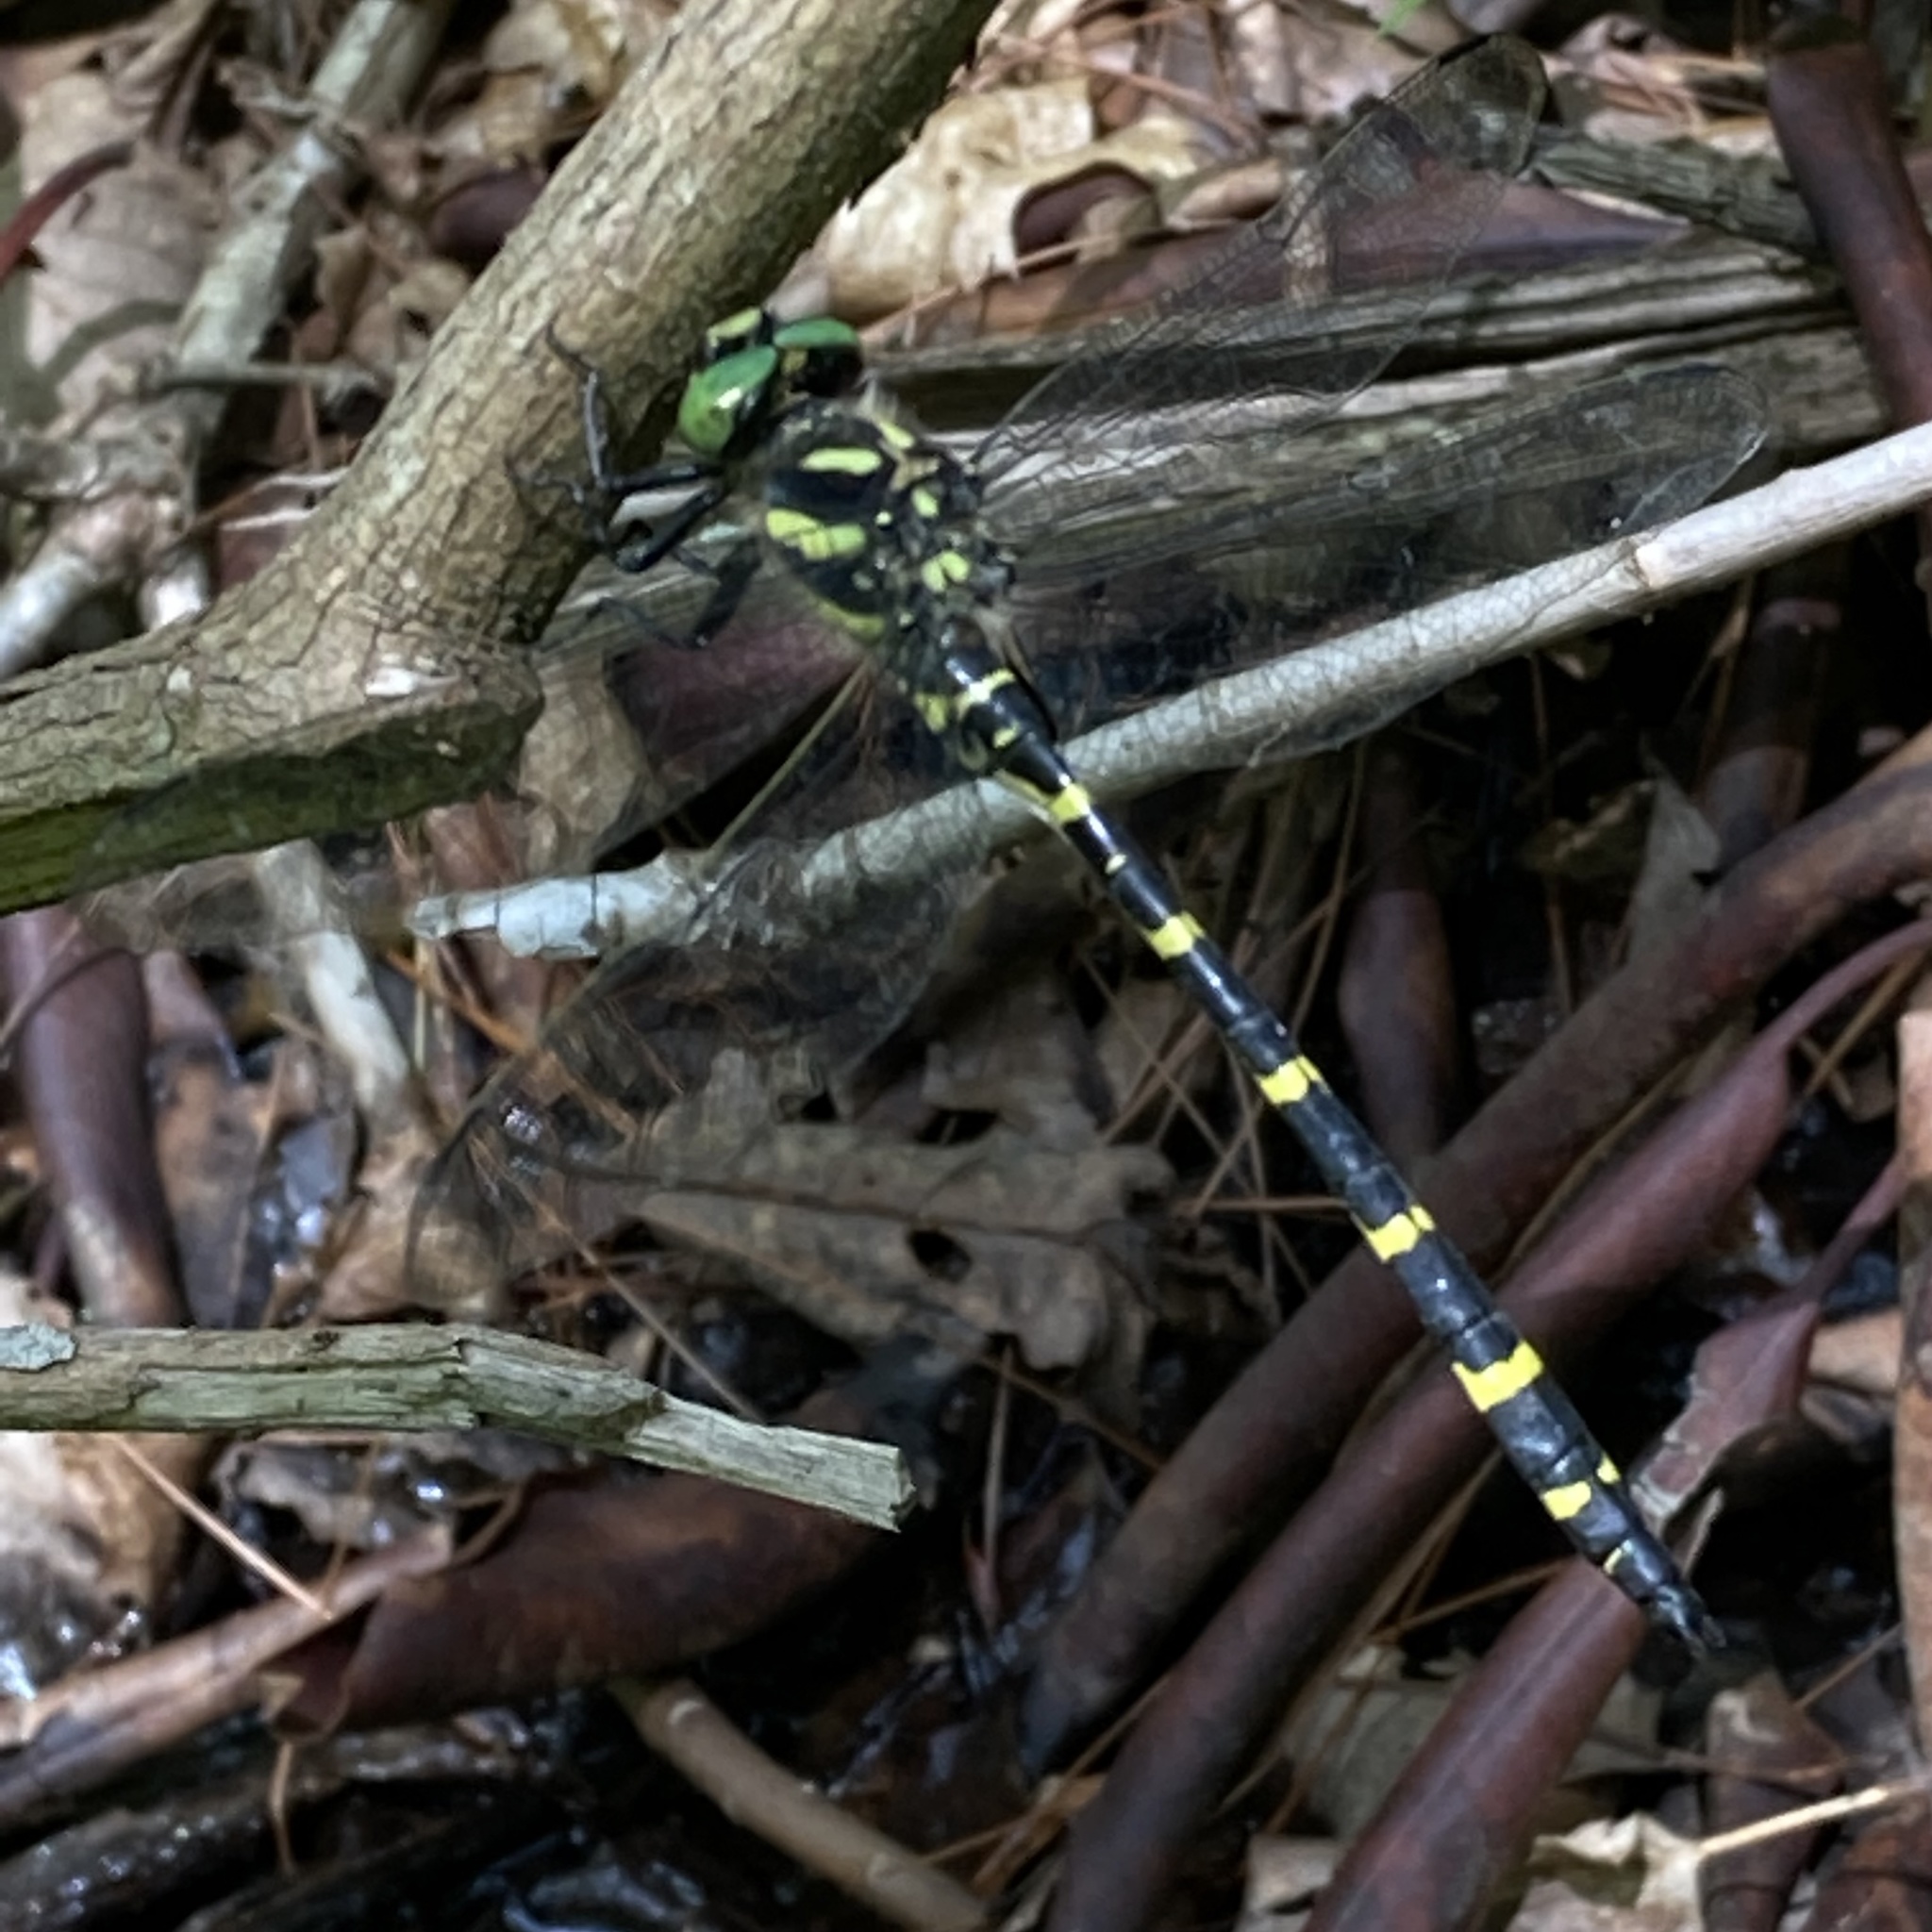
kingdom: Animalia
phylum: Arthropoda
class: Insecta
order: Odonata
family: Cordulegastridae
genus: Cordulegaster
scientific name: Cordulegaster erronea
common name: Tiger spiketail
